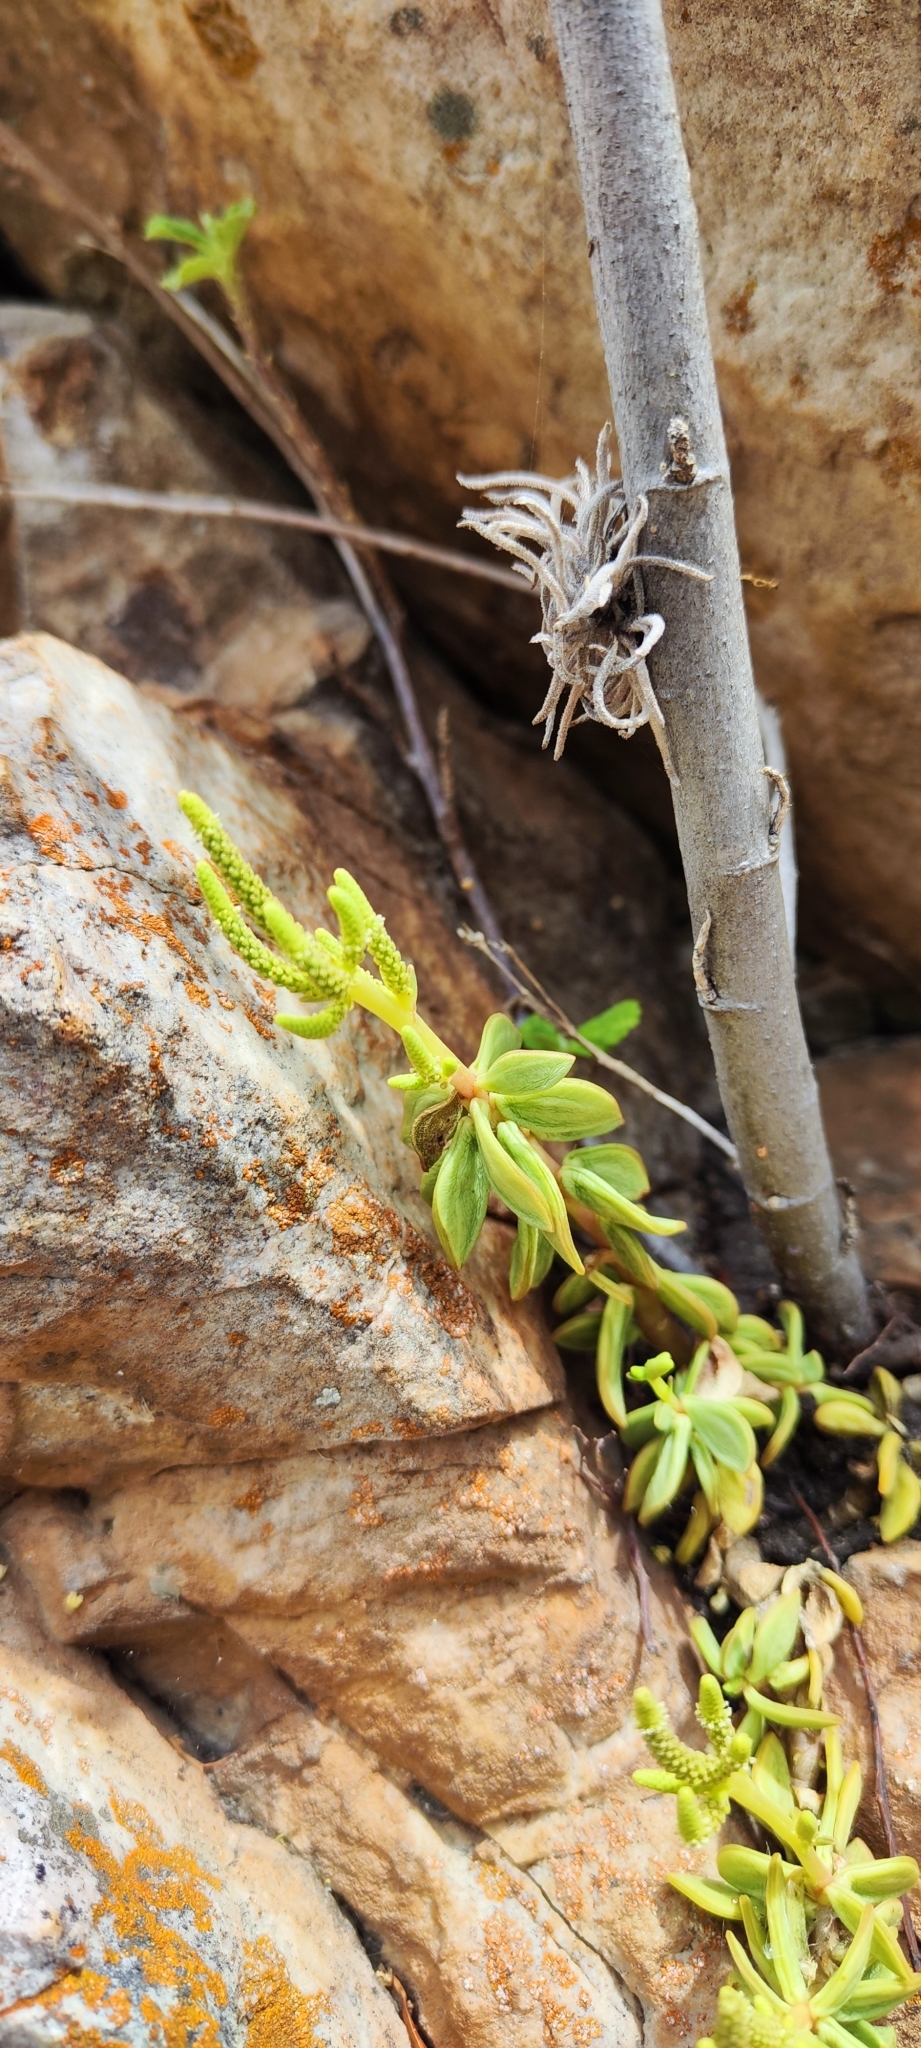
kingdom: Plantae
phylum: Tracheophyta
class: Magnoliopsida
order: Piperales
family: Piperaceae
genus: Peperomia
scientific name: Peperomia nivalis
